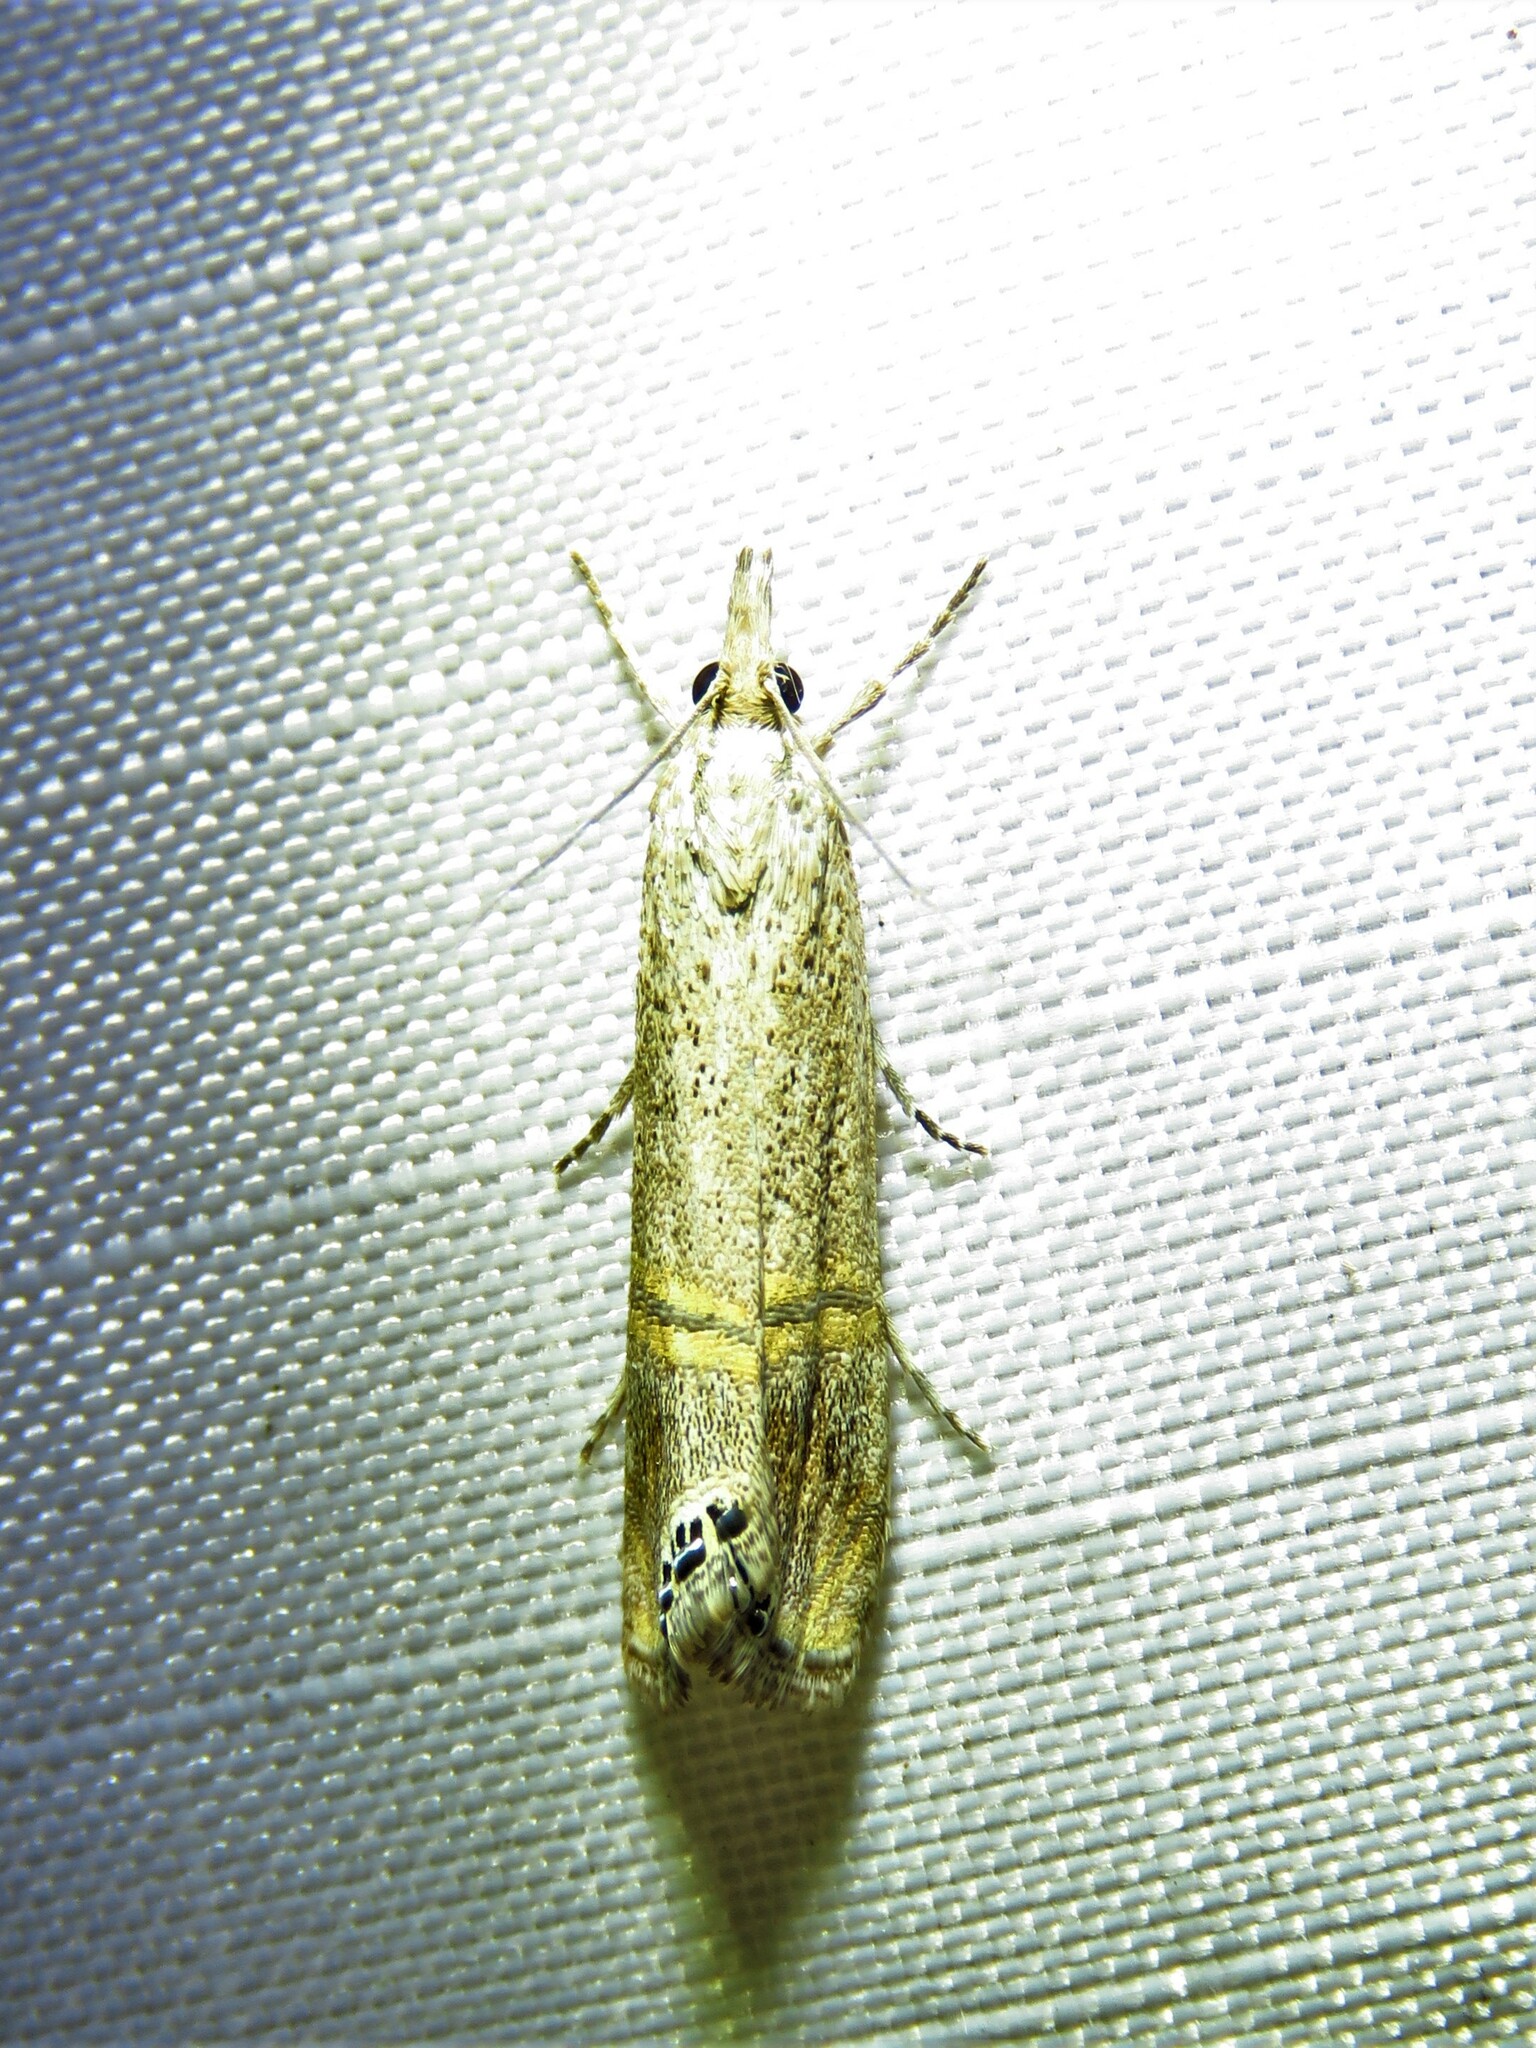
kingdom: Animalia
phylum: Arthropoda
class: Insecta
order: Lepidoptera
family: Crambidae
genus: Euchromius
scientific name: Euchromius ocellea
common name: Necklace veneer moth
